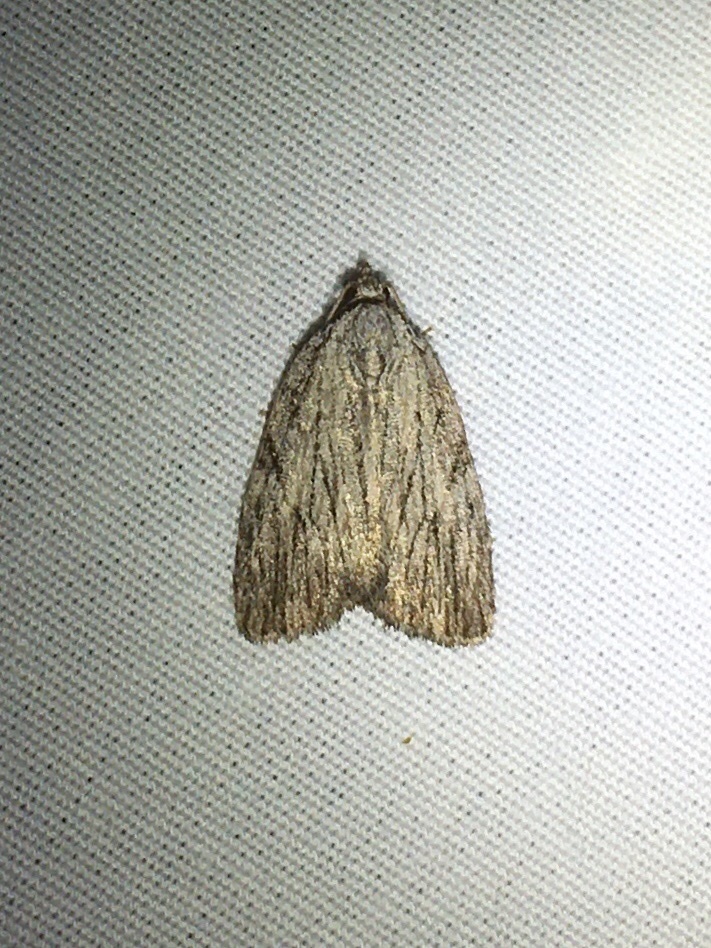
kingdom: Animalia
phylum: Arthropoda
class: Insecta
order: Lepidoptera
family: Noctuidae
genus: Balsa
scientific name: Balsa tristrigella
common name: Three-lined balsa moth
